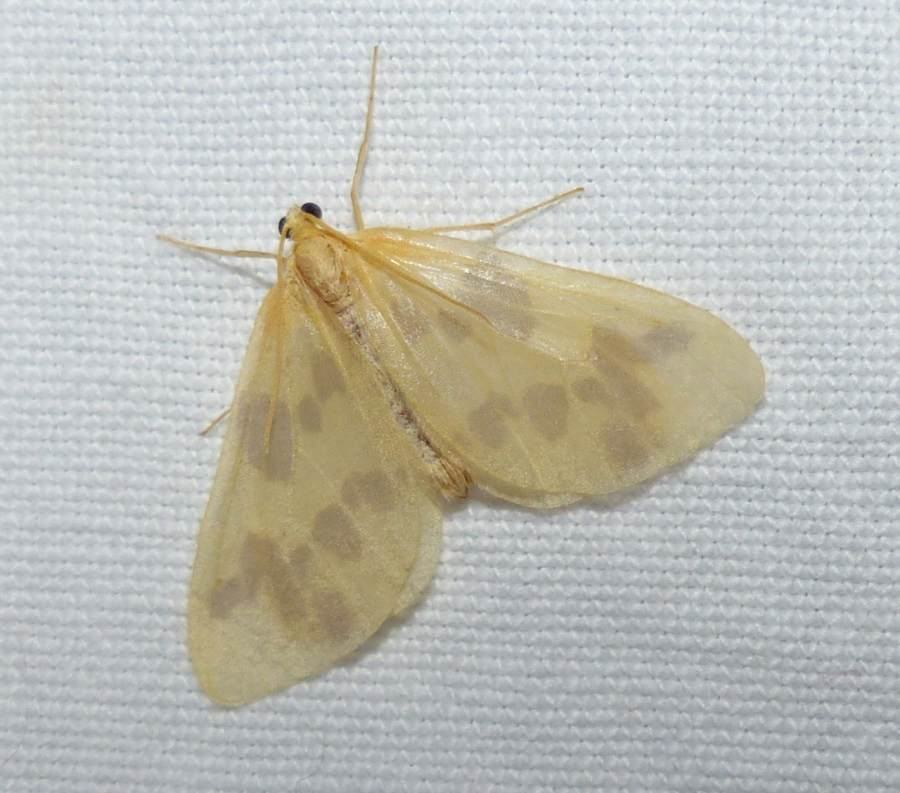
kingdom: Animalia
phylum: Arthropoda
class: Insecta
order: Lepidoptera
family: Geometridae
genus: Eubaphe
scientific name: Eubaphe mendica
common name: Beggar
